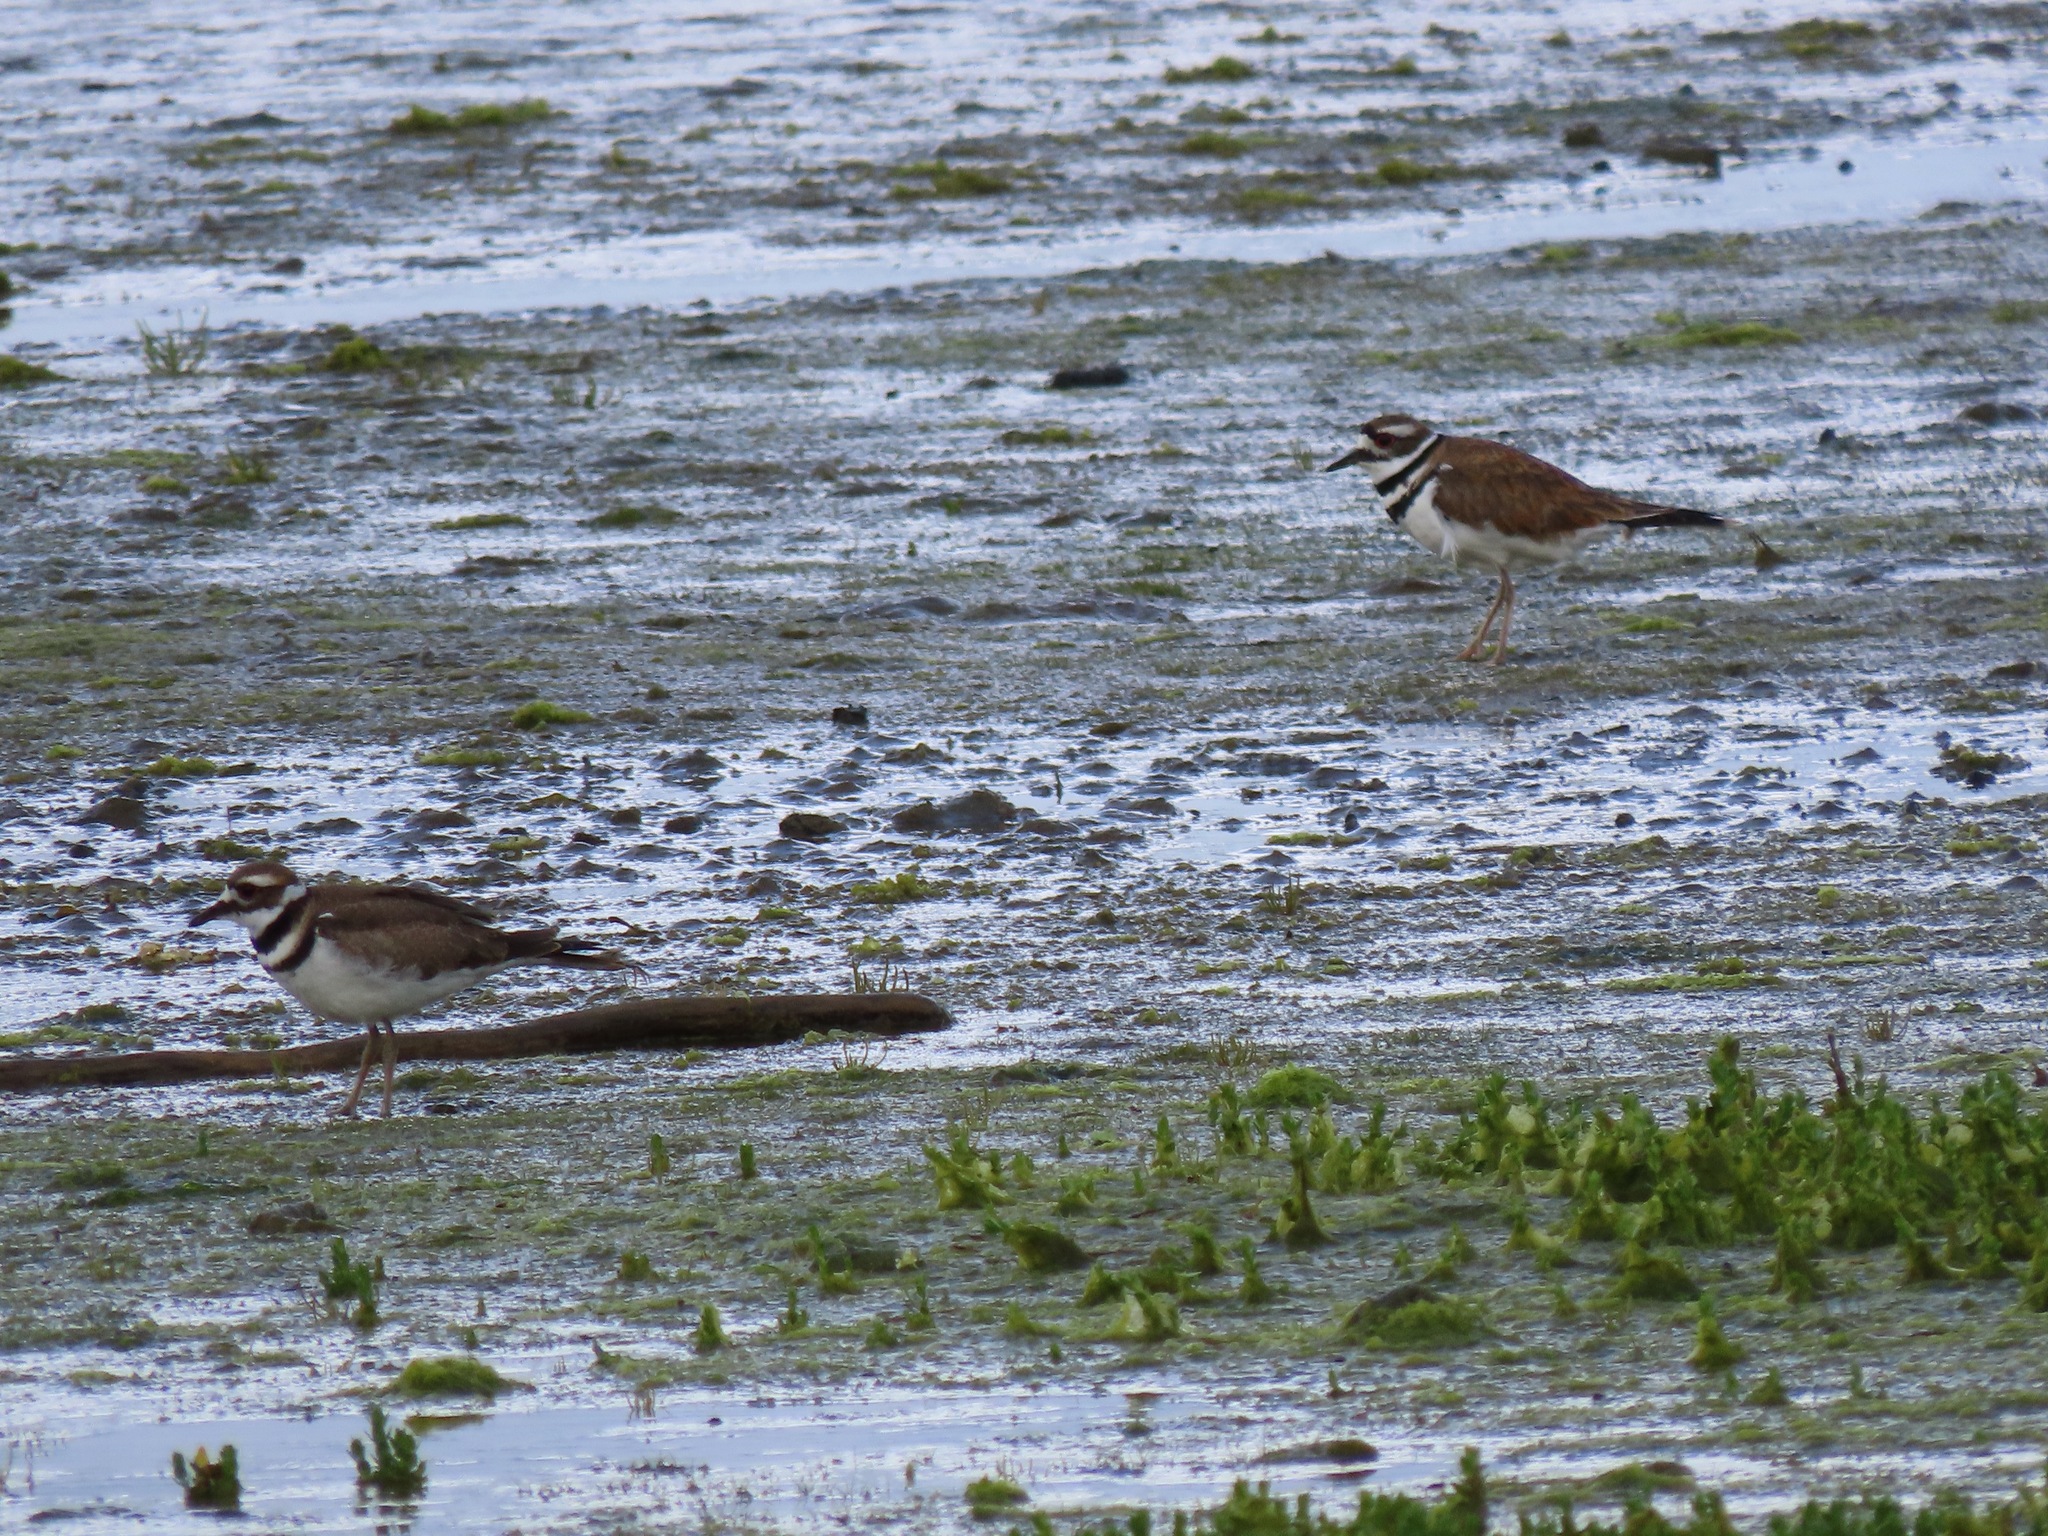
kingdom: Animalia
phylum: Chordata
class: Aves
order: Charadriiformes
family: Charadriidae
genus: Charadrius
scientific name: Charadrius vociferus
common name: Killdeer
